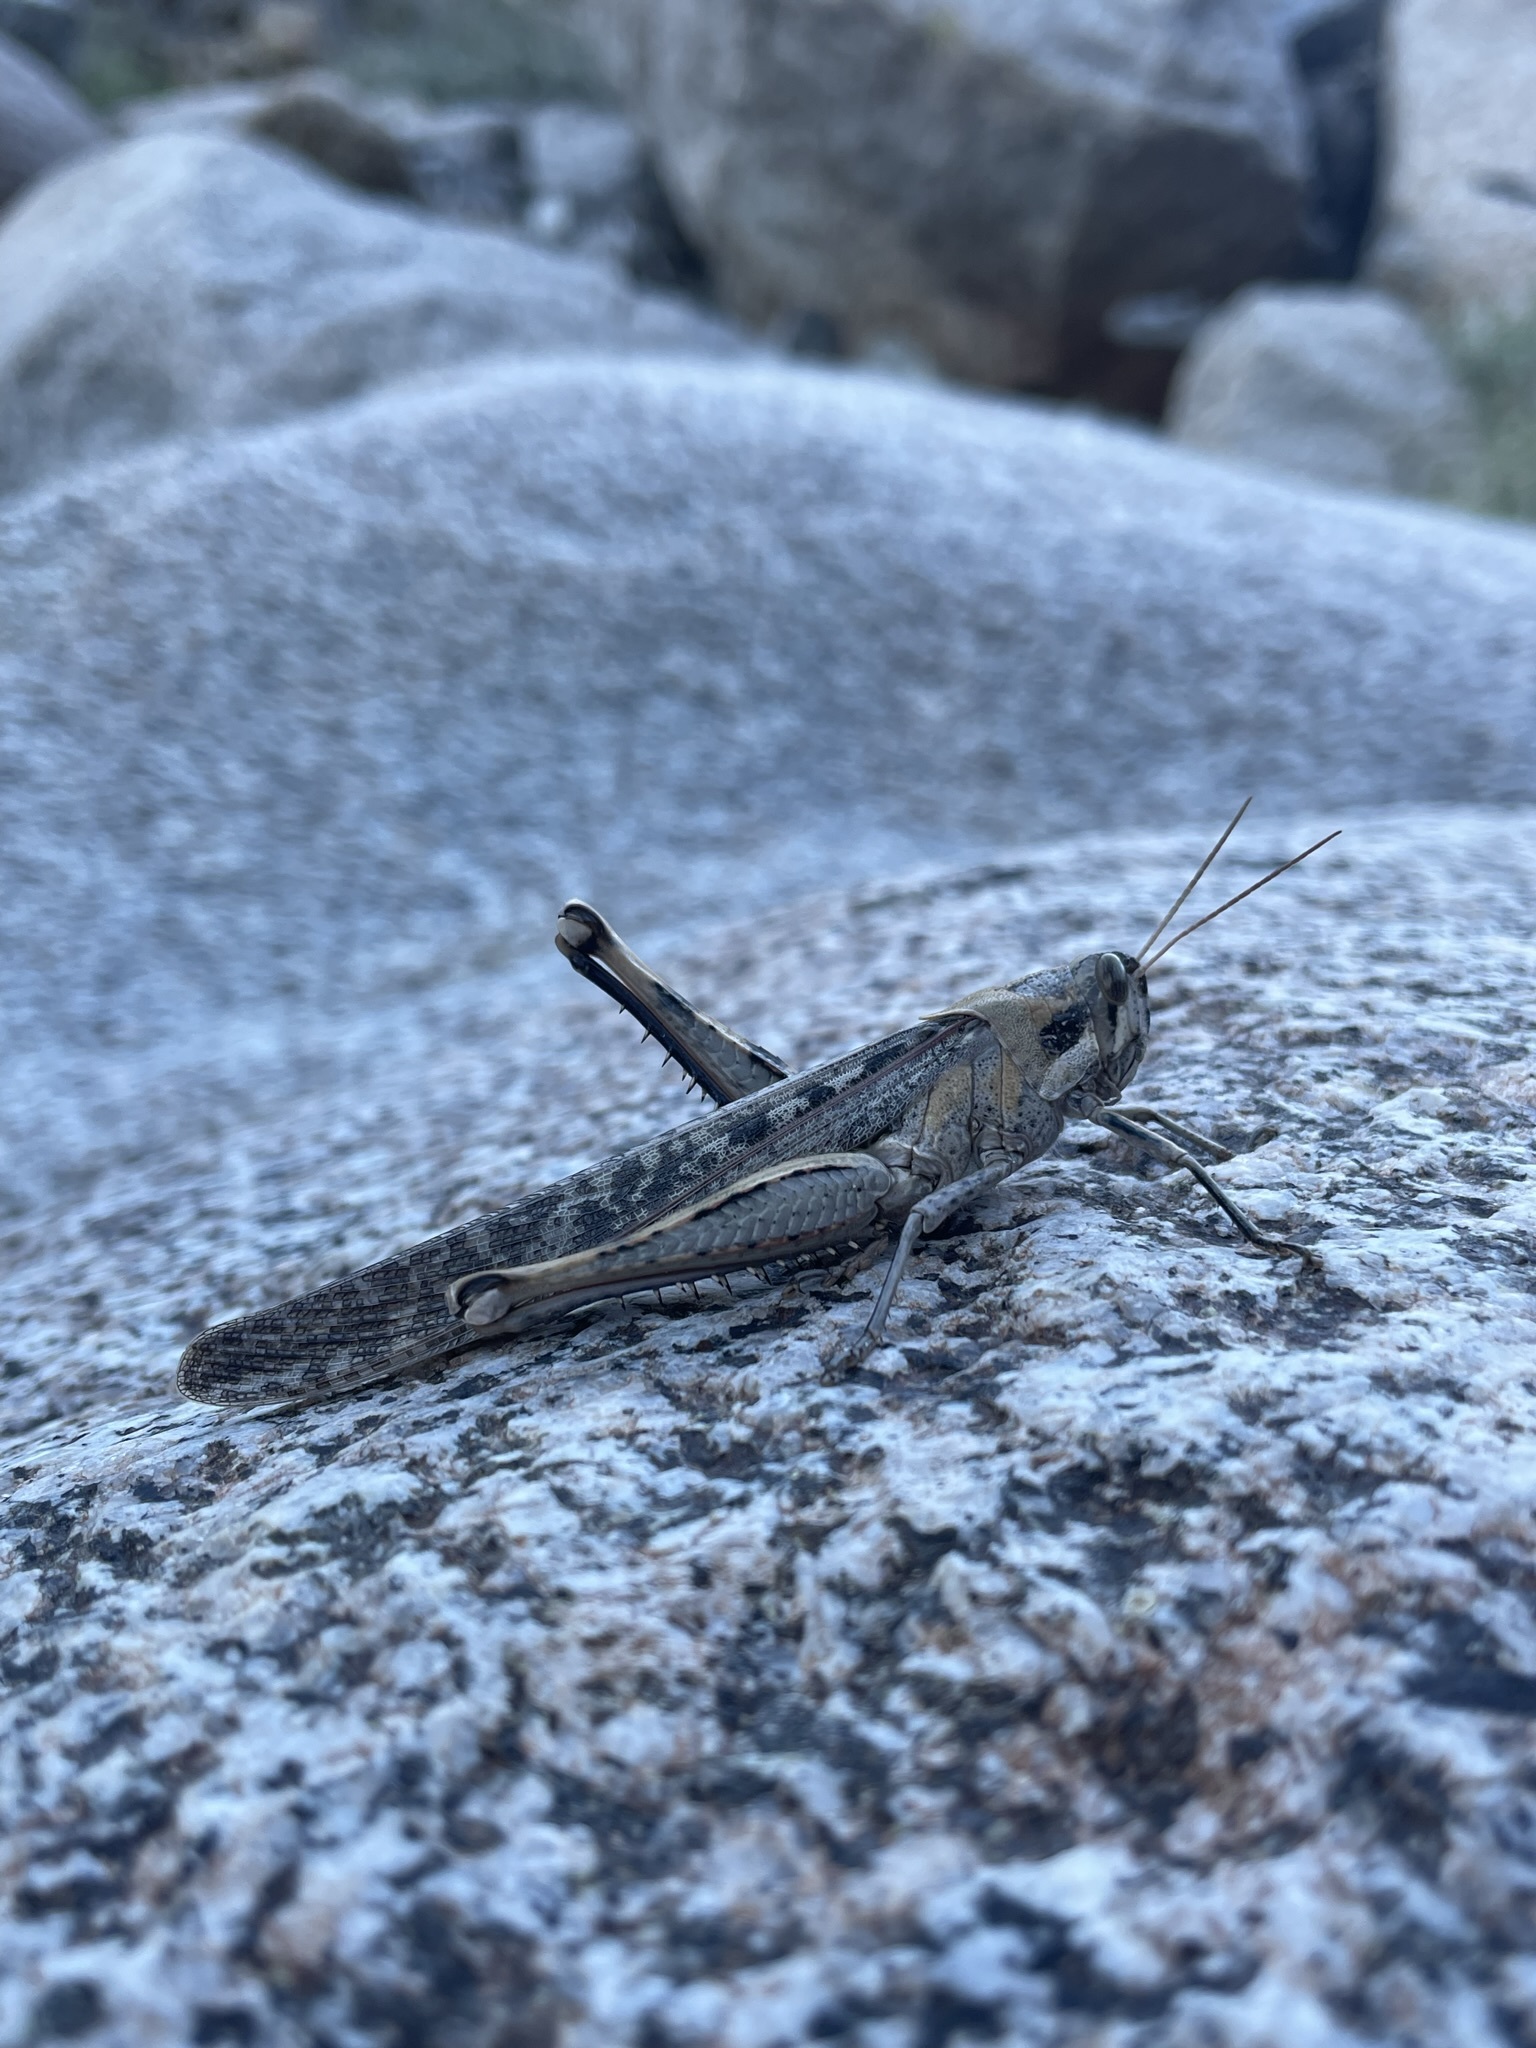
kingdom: Animalia
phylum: Arthropoda
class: Insecta
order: Orthoptera
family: Acrididae
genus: Schistocerca
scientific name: Schistocerca nitens
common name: Vagrant grasshopper
